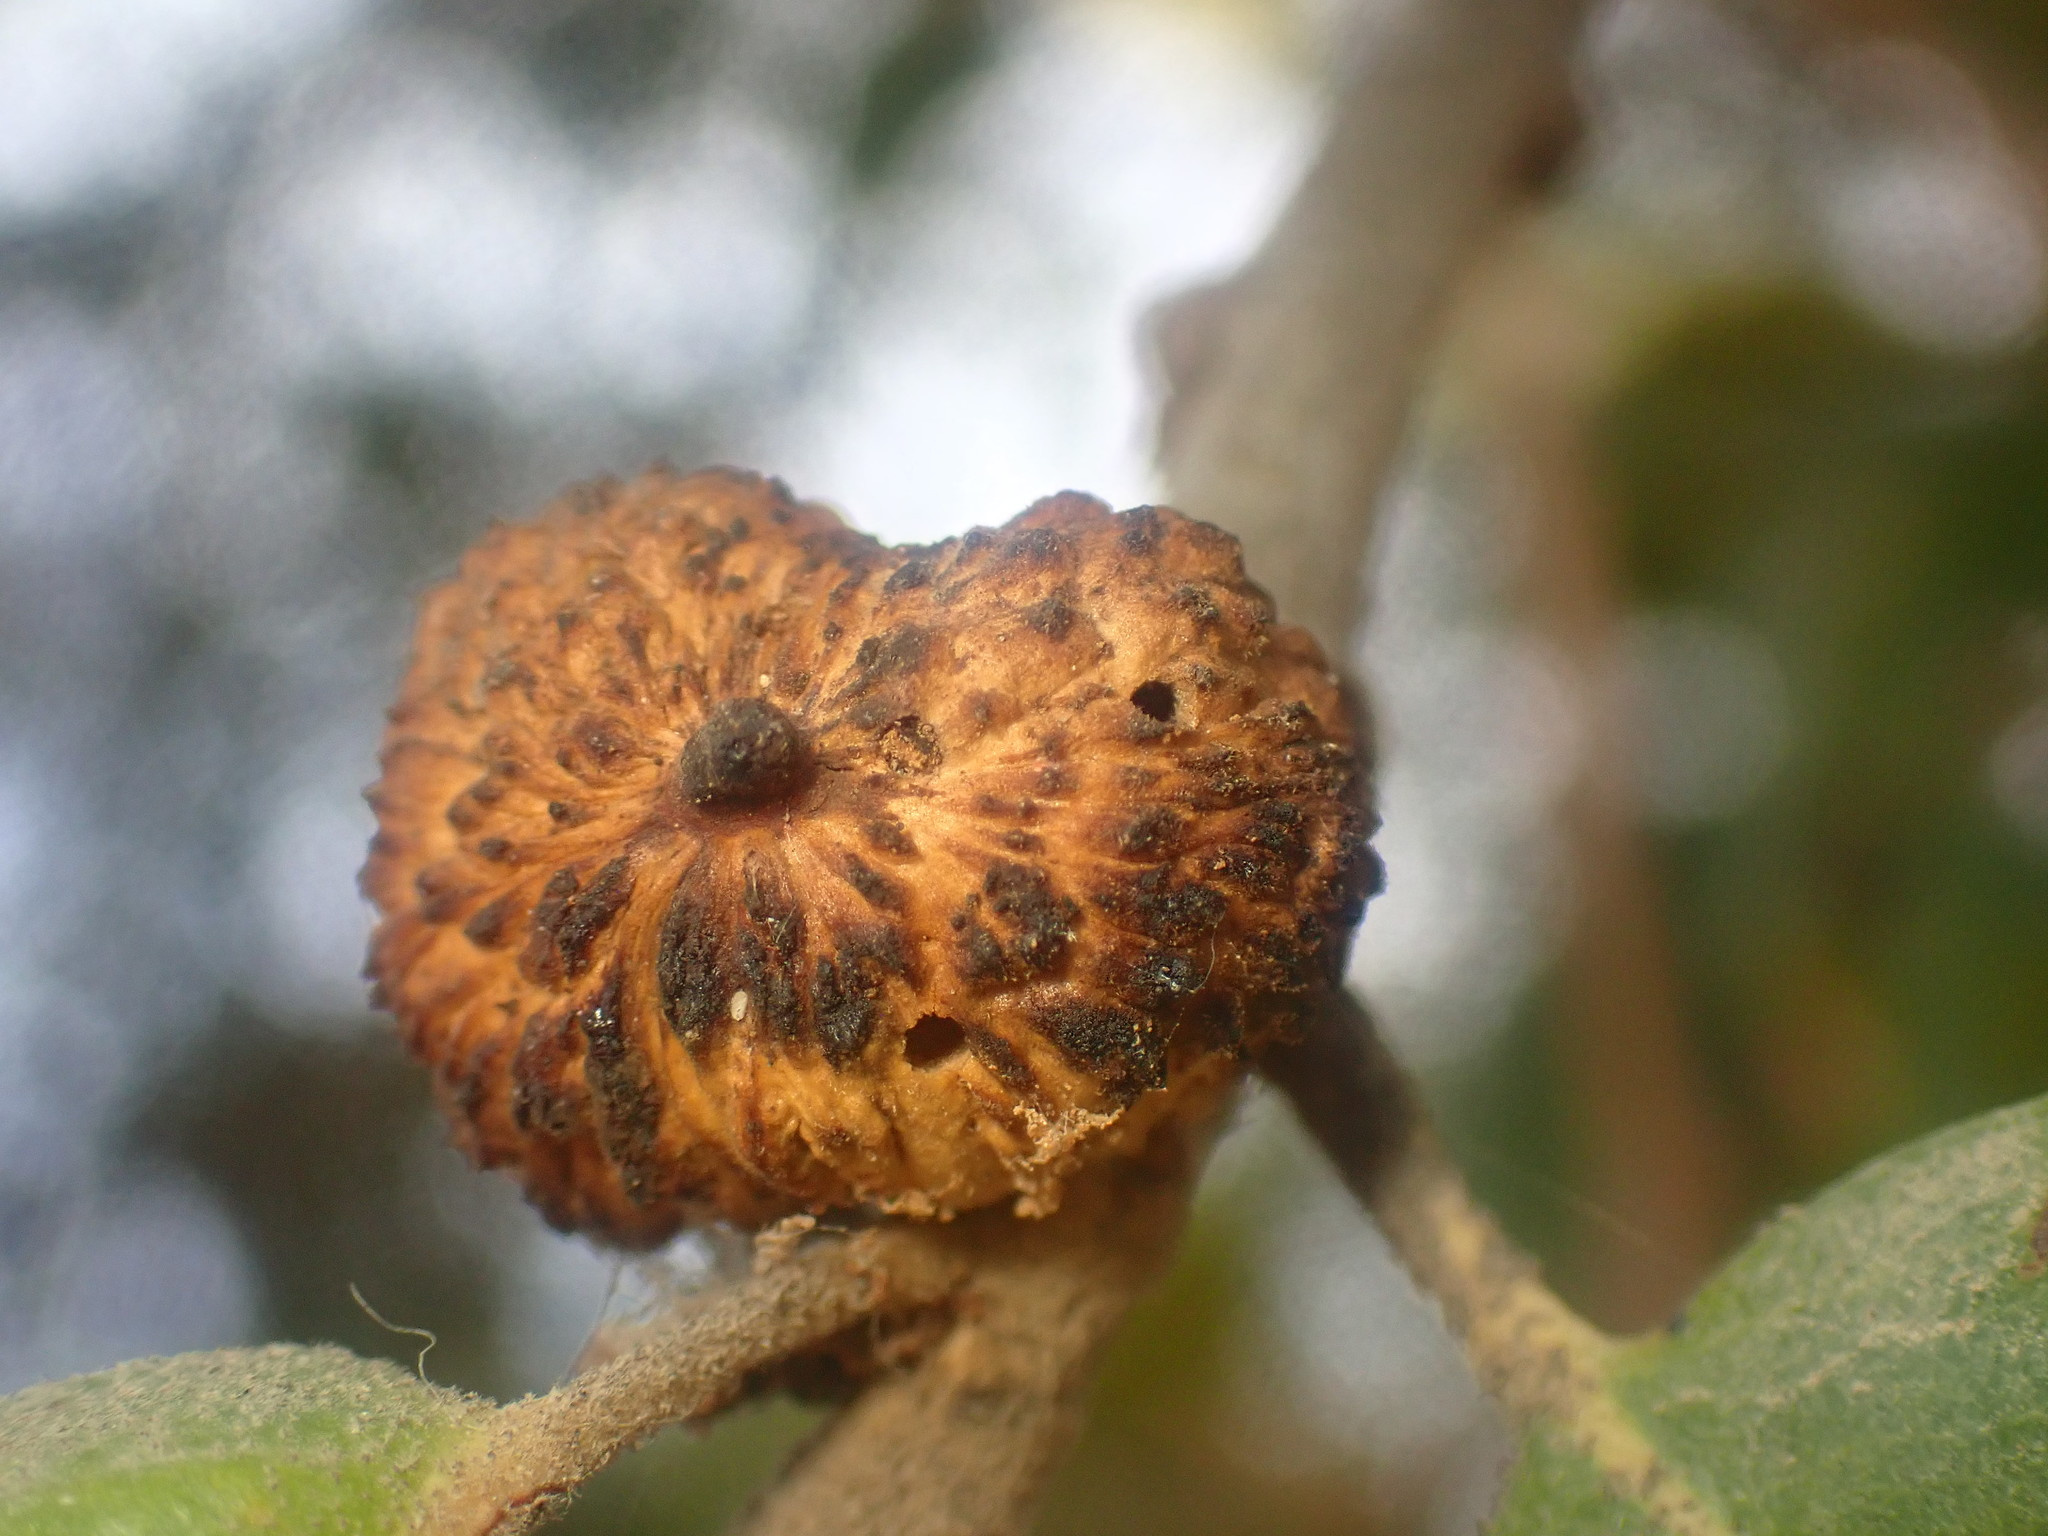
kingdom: Animalia
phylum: Arthropoda
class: Insecta
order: Hymenoptera
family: Cynipidae
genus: Amphibolips
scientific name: Amphibolips quercuspomiformis
